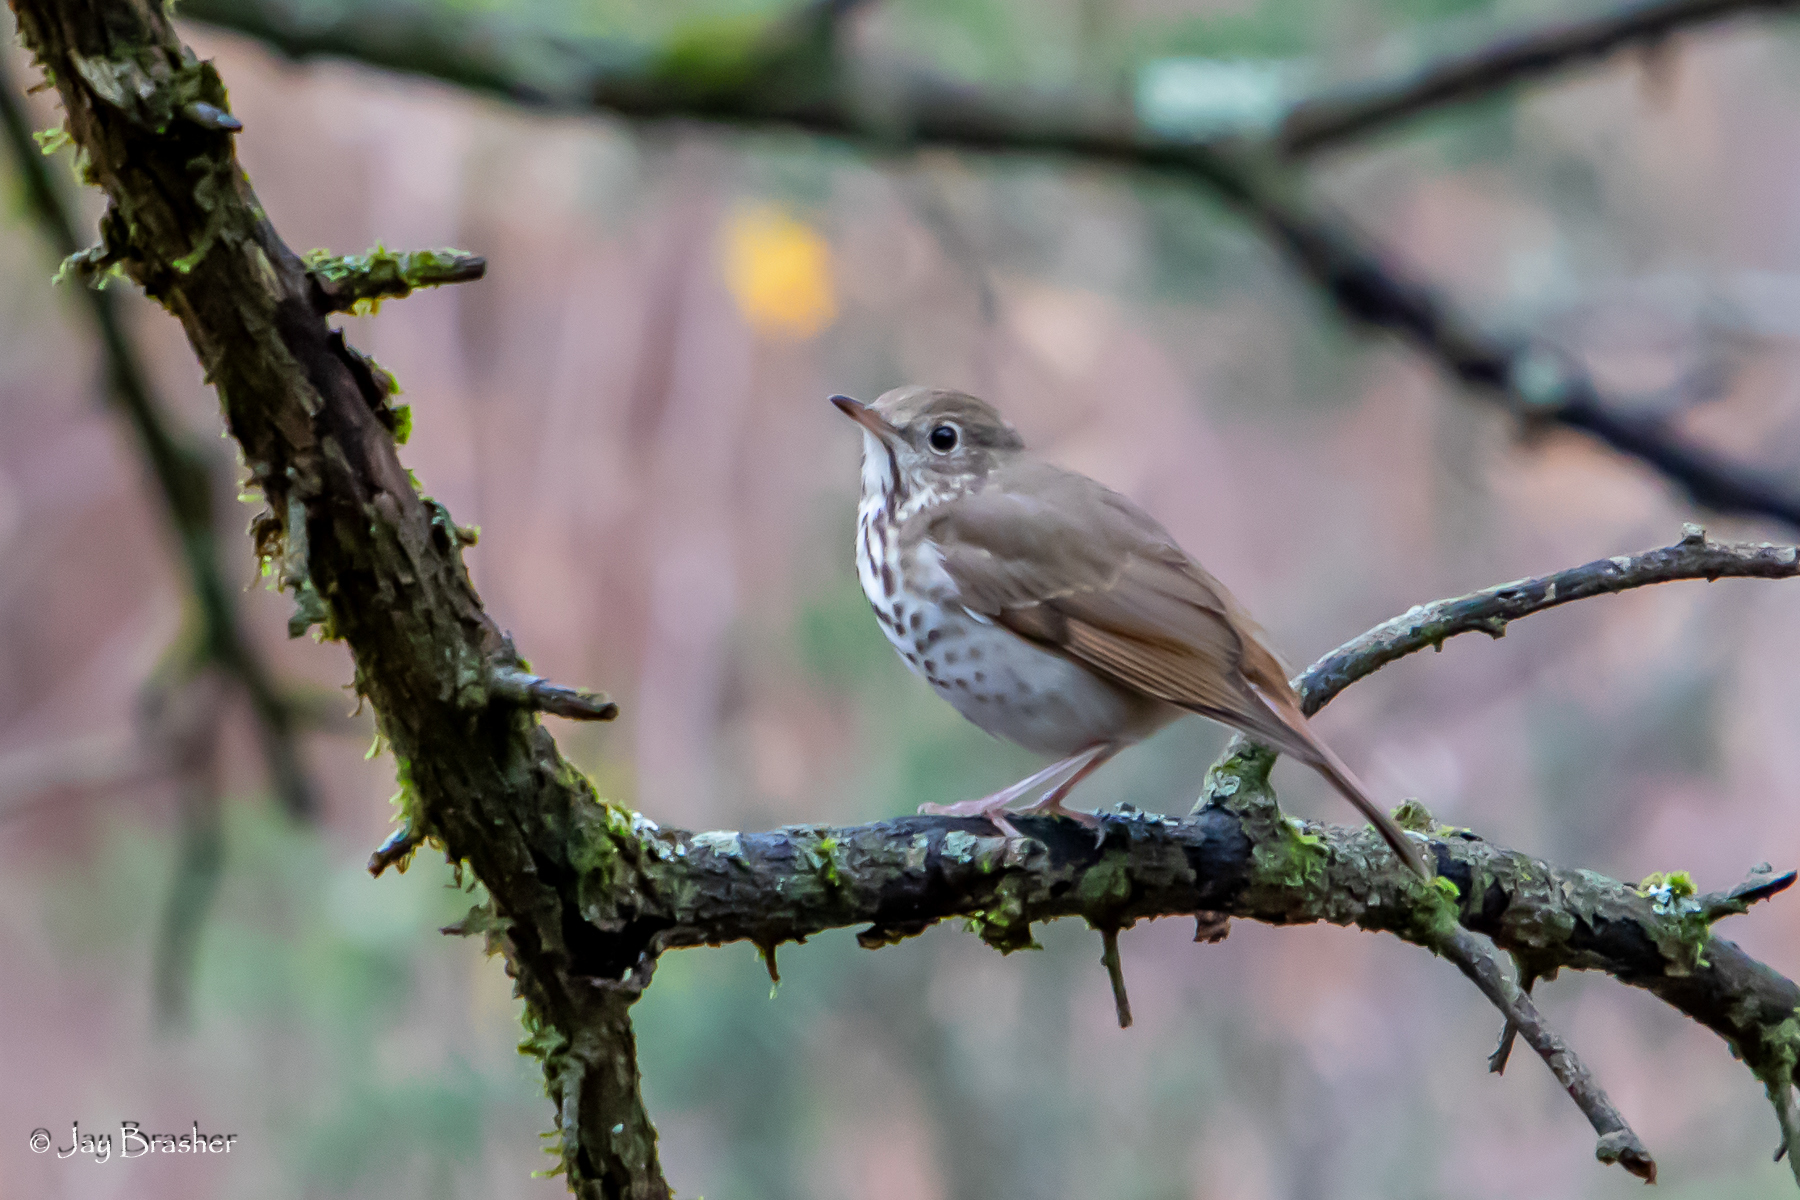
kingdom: Animalia
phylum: Chordata
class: Aves
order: Passeriformes
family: Turdidae
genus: Catharus
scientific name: Catharus guttatus
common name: Hermit thrush
